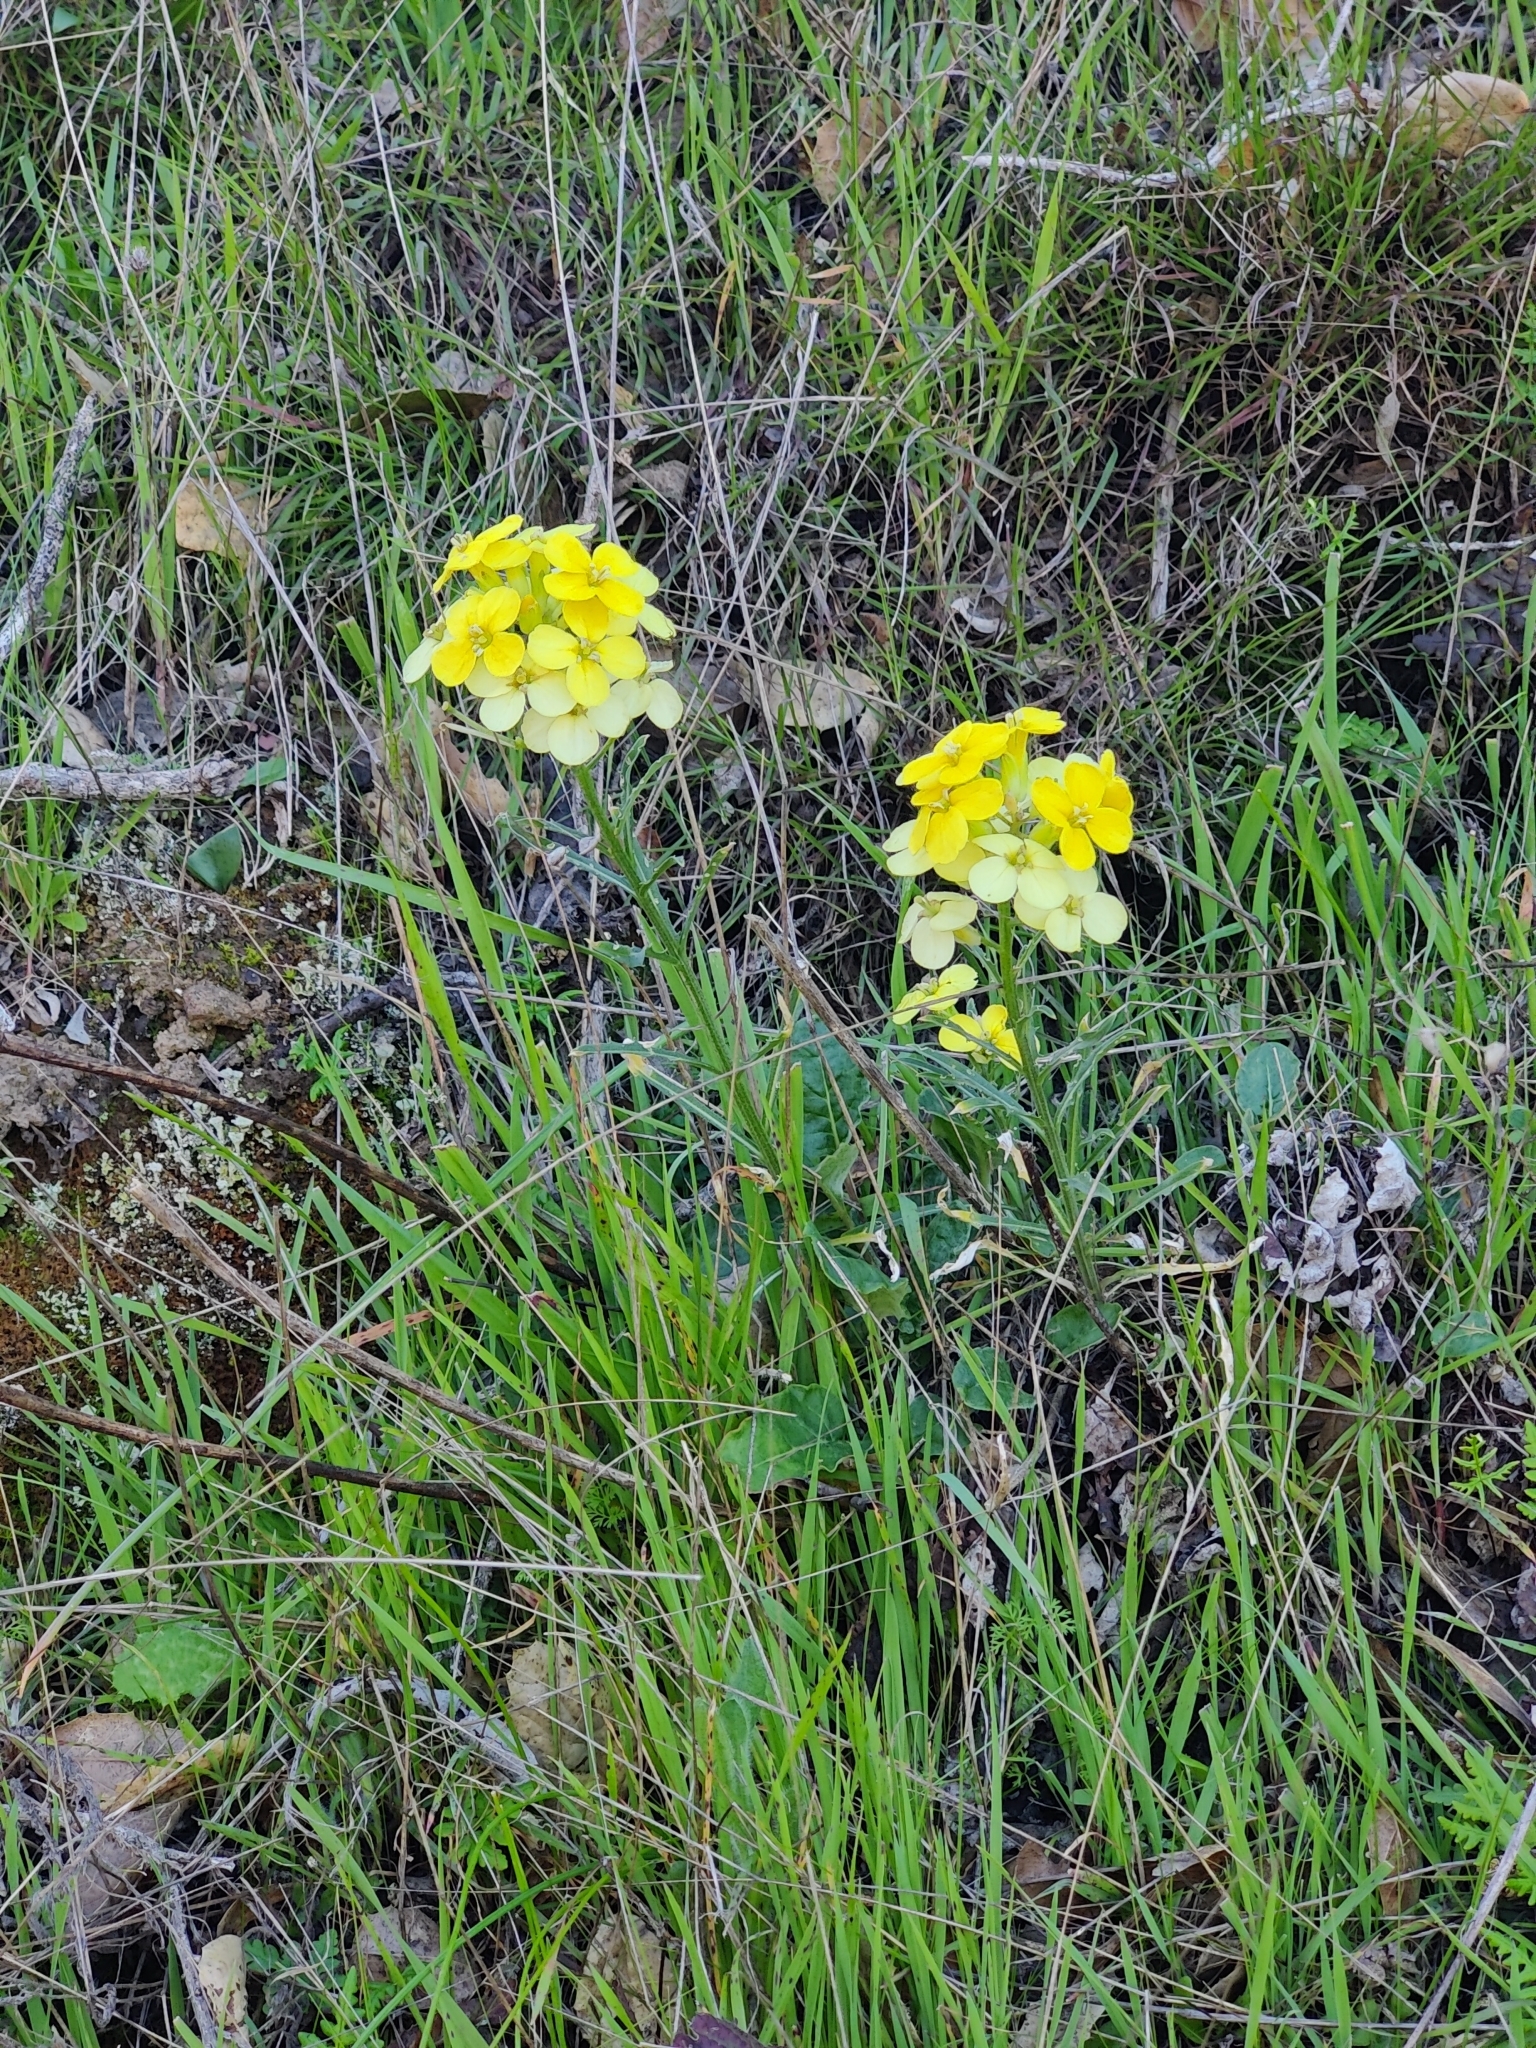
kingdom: Plantae
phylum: Tracheophyta
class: Magnoliopsida
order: Brassicales
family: Brassicaceae
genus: Erysimum
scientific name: Erysimum franciscanum
